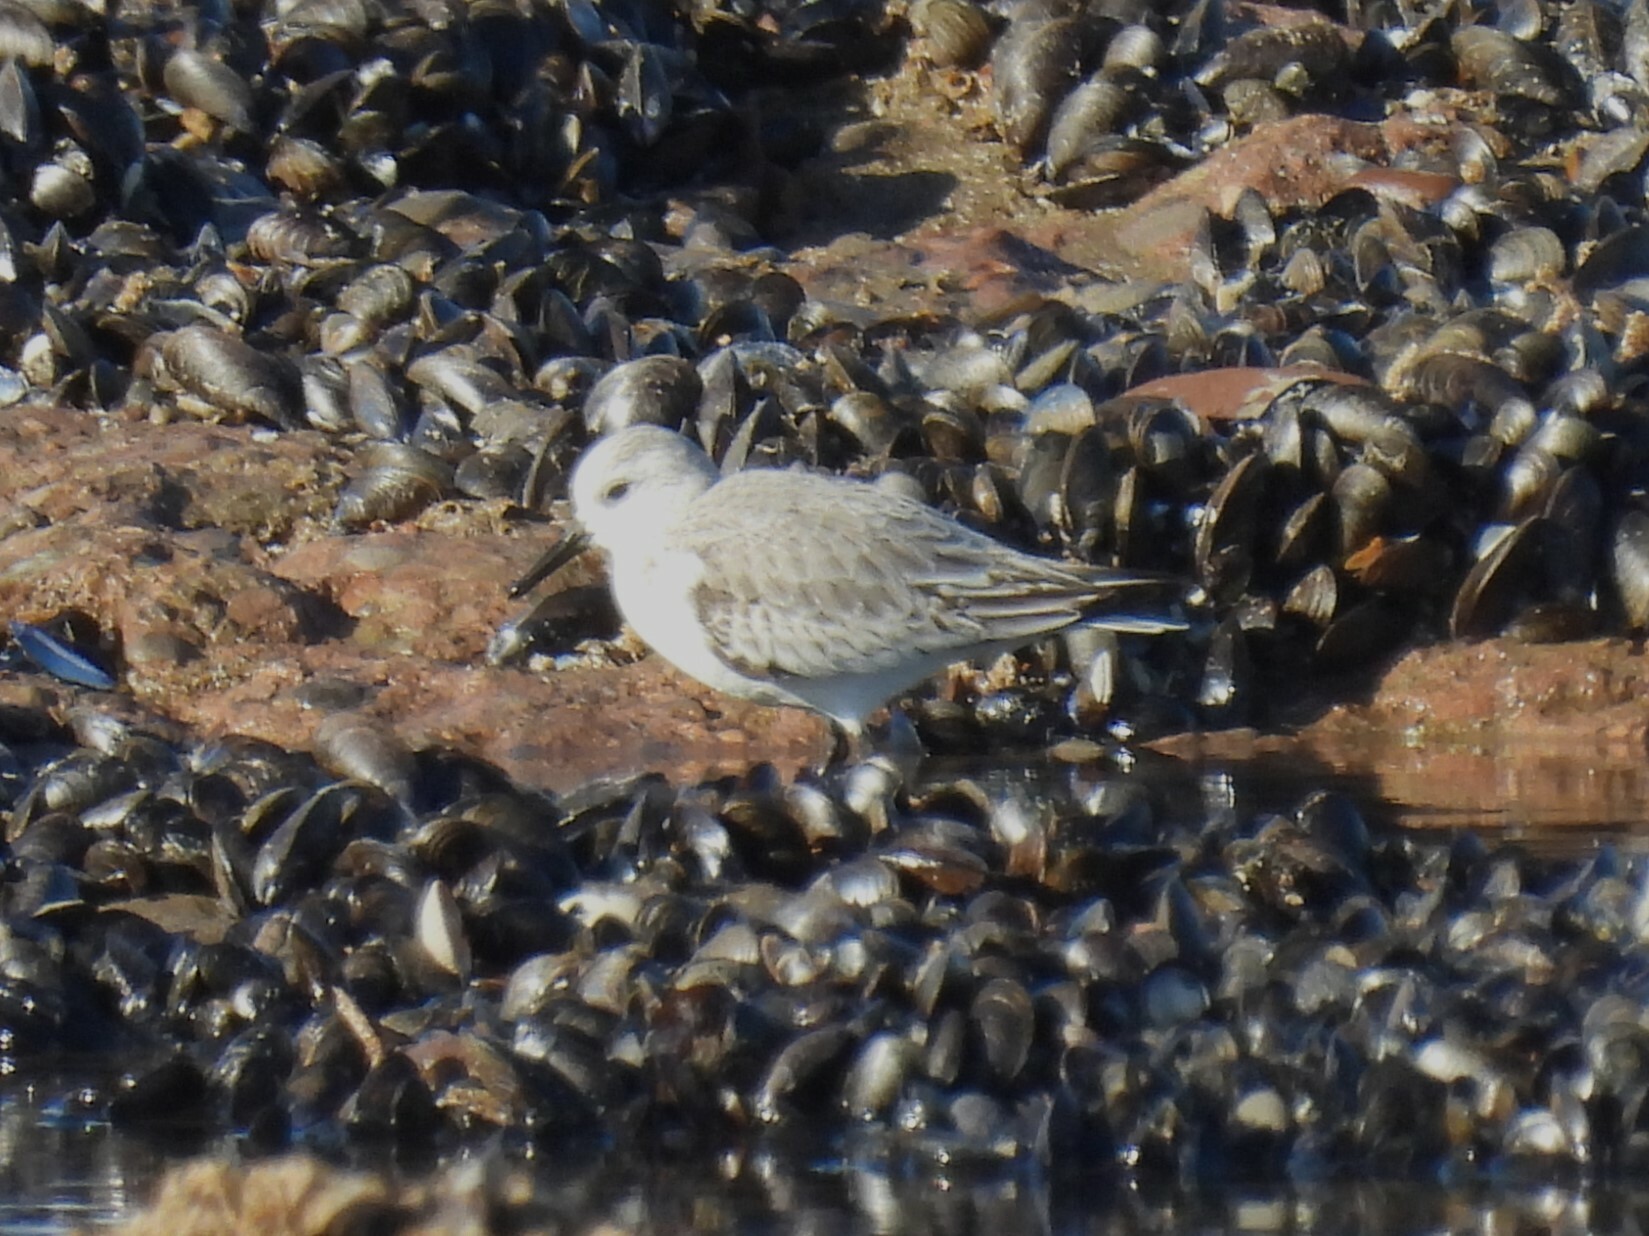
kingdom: Animalia
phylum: Chordata
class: Aves
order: Charadriiformes
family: Scolopacidae
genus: Calidris
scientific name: Calidris alba
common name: Sanderling
